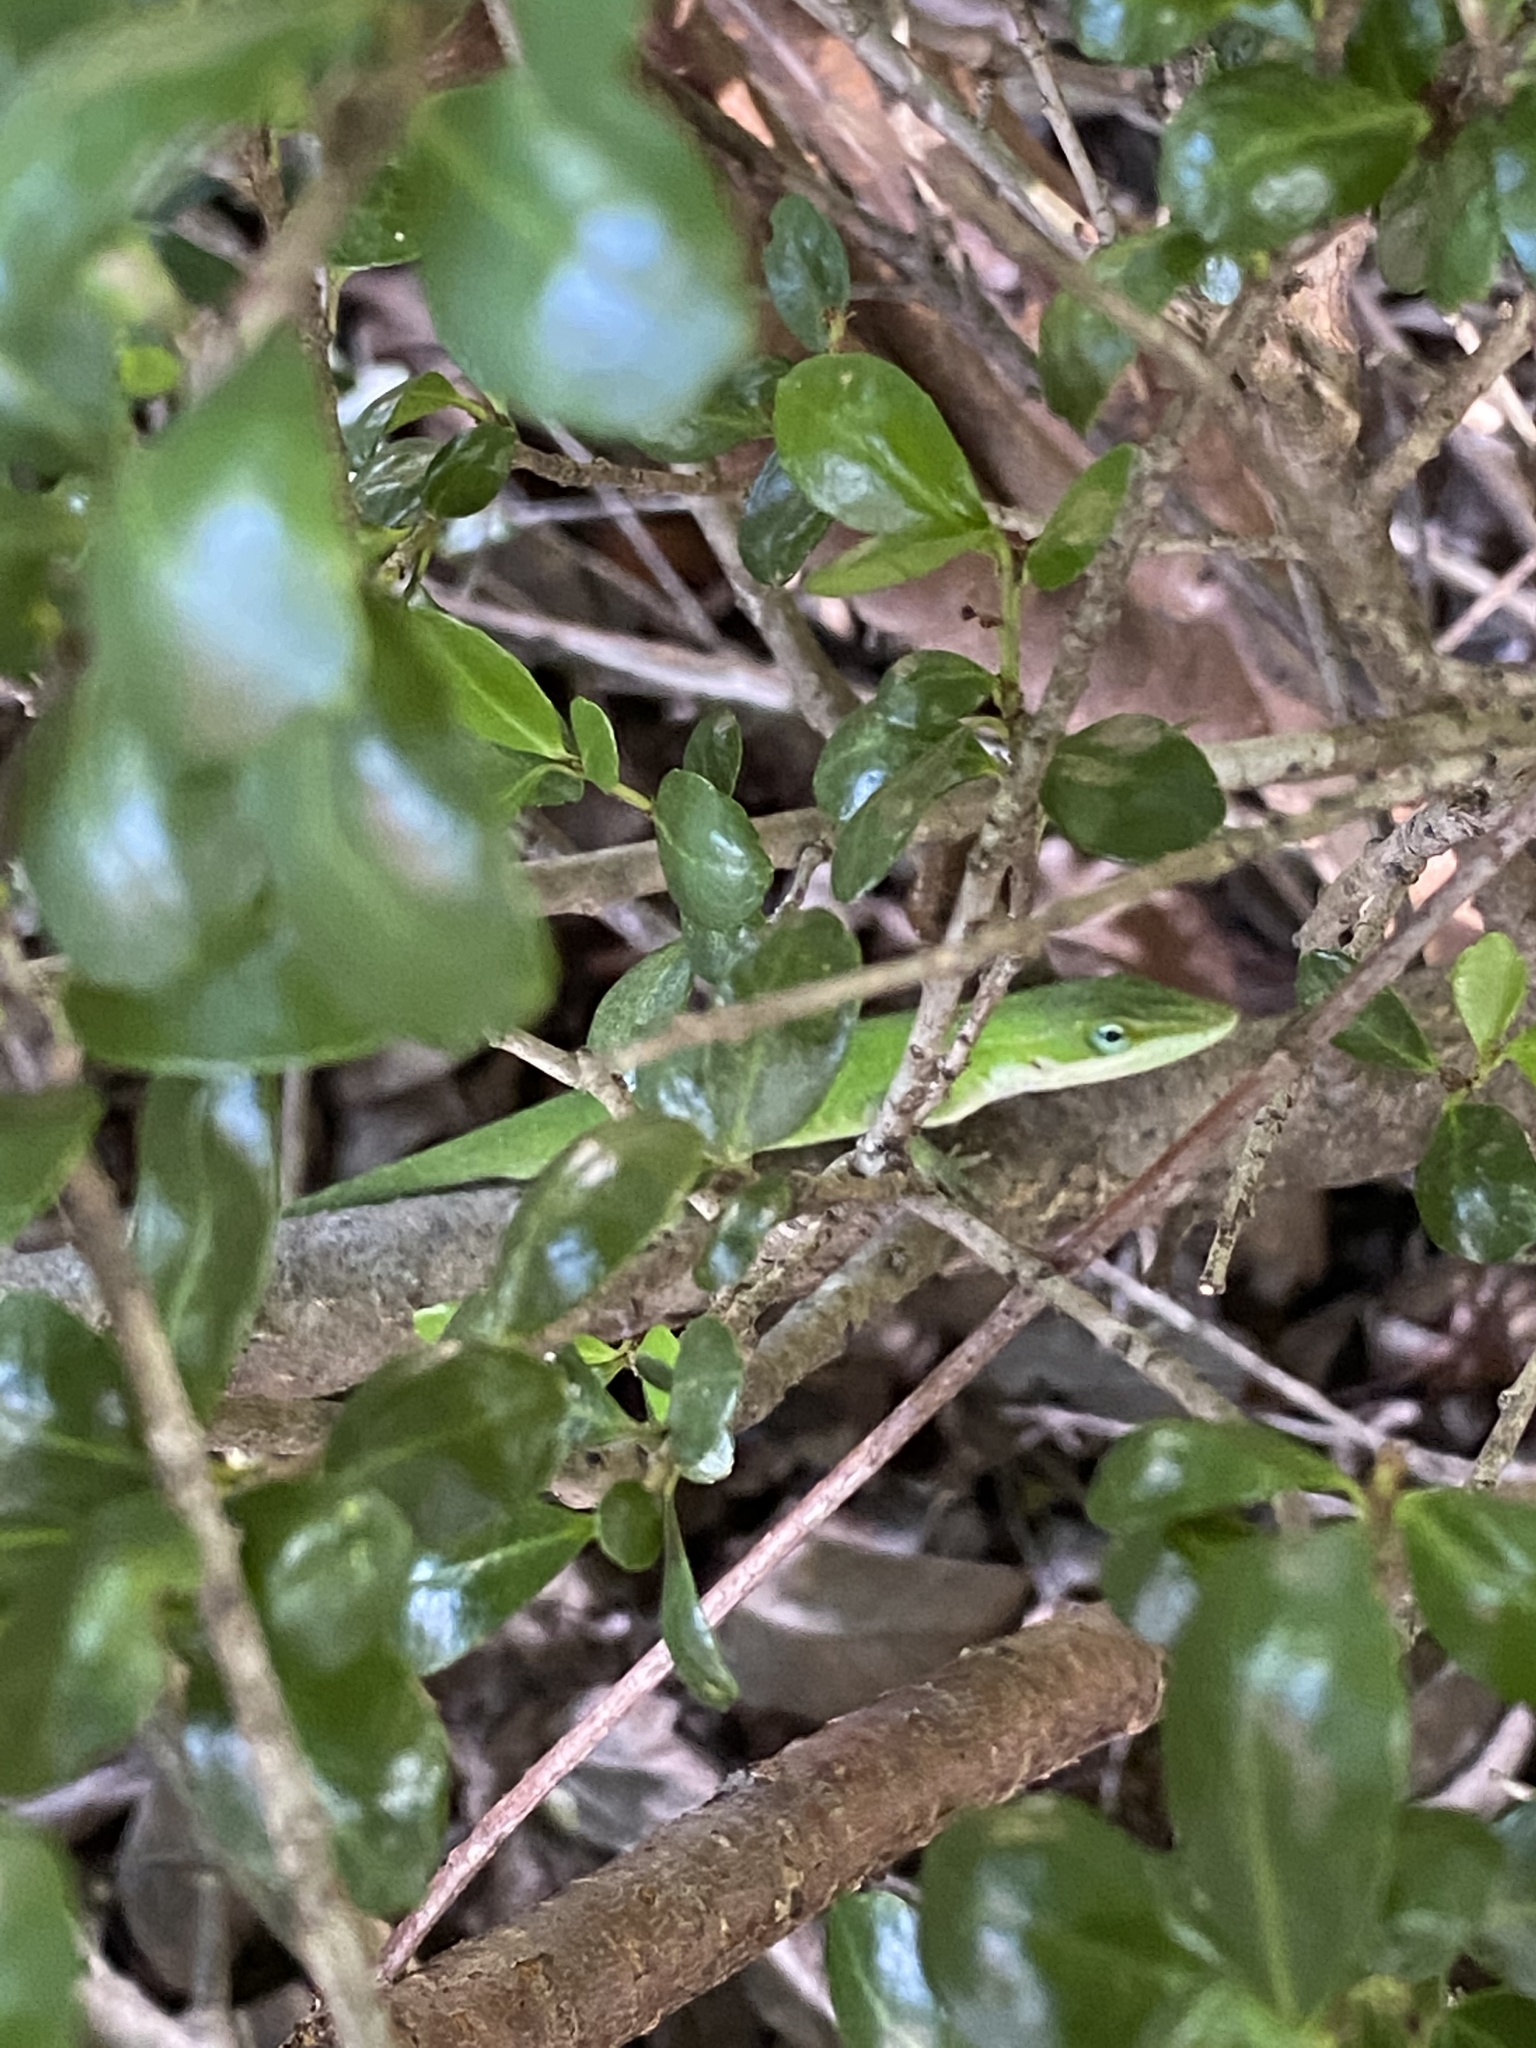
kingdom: Animalia
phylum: Chordata
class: Squamata
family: Dactyloidae
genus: Anolis
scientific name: Anolis carolinensis
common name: Green anole
